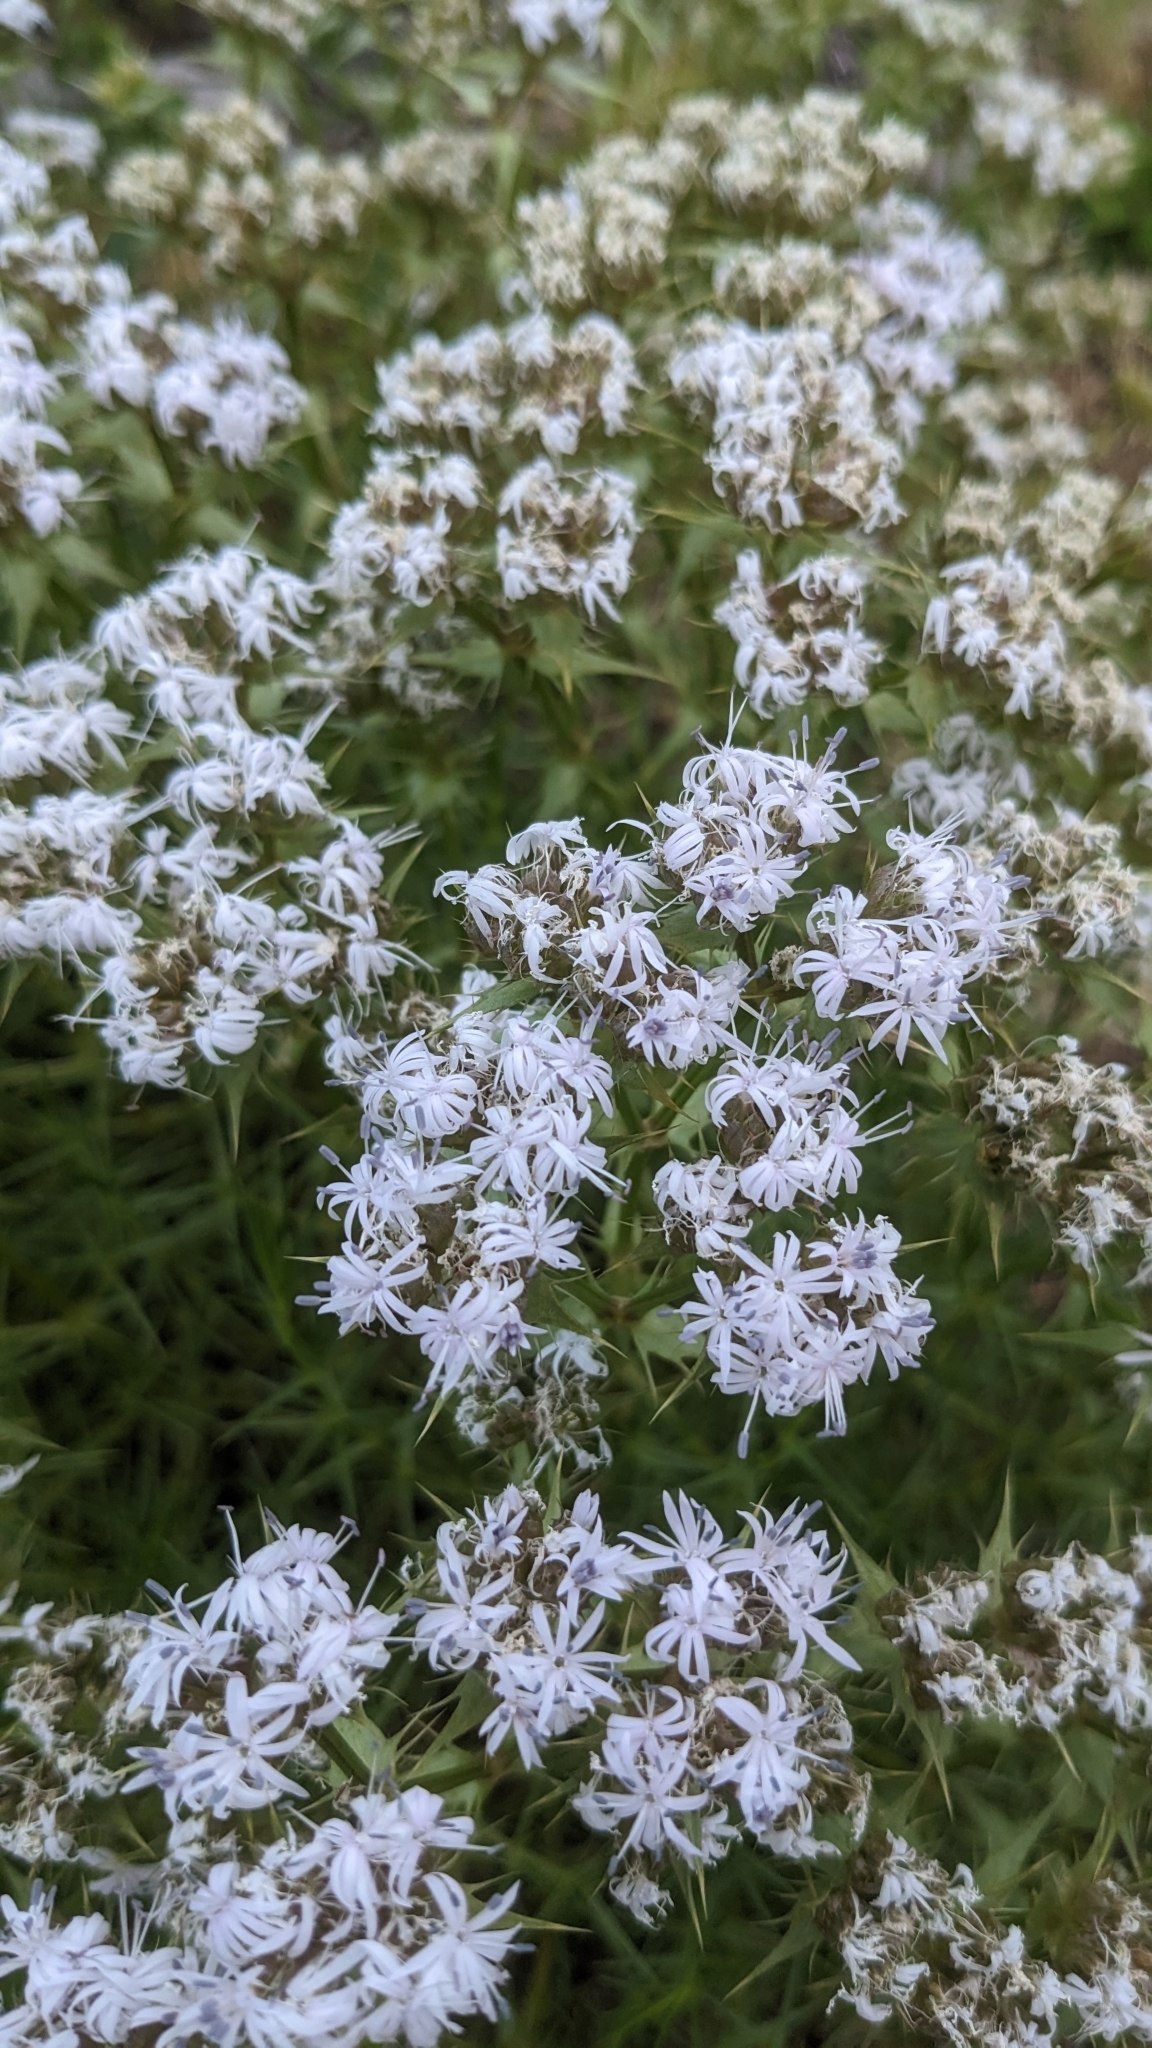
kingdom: Plantae
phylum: Tracheophyta
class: Magnoliopsida
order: Caryophyllales
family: Caryophyllaceae
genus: Drypis
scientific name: Drypis spinosa
